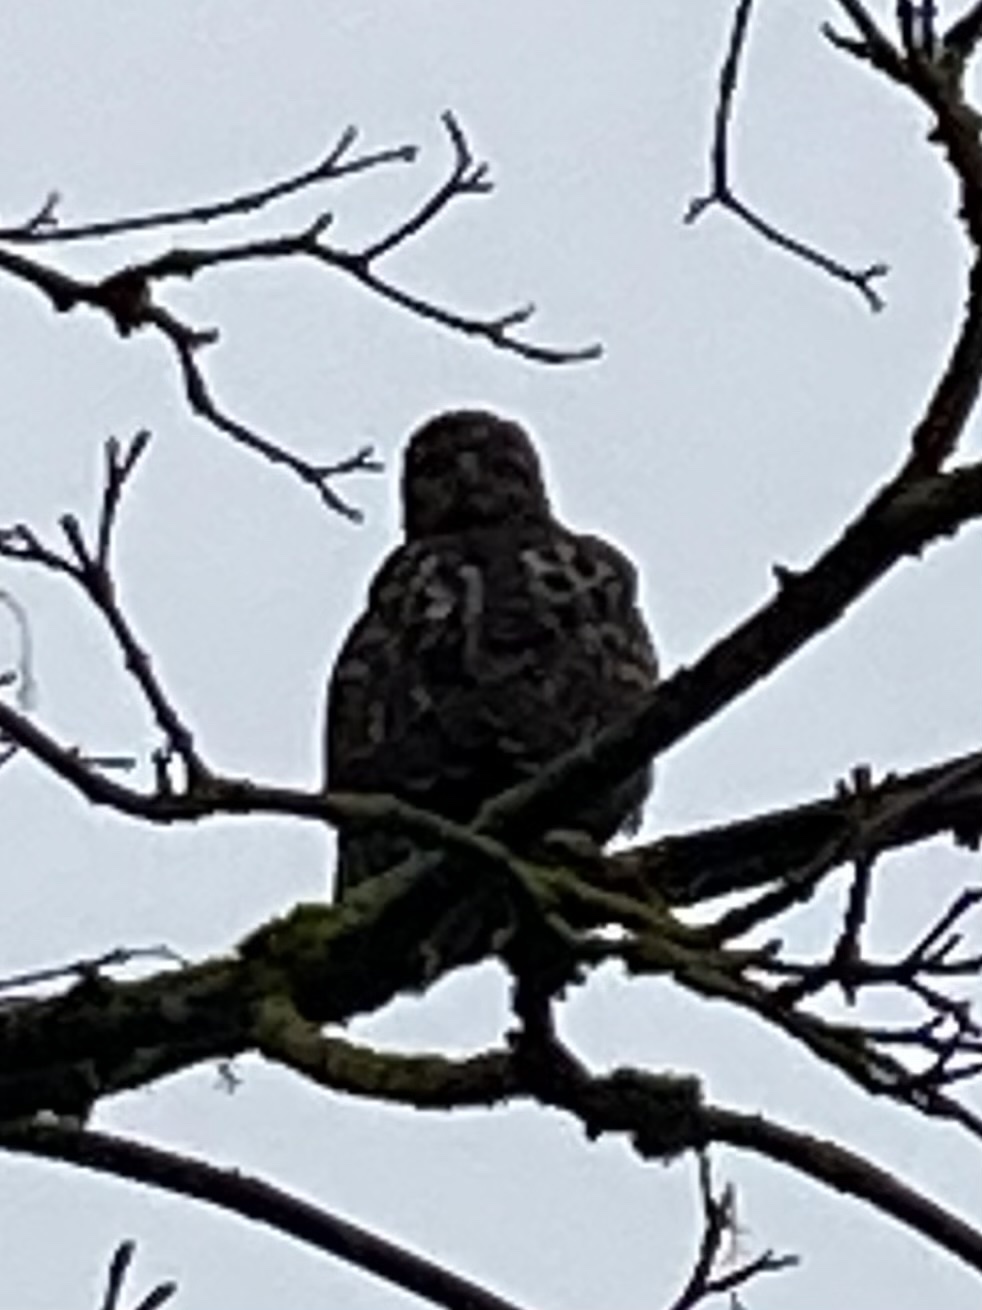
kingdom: Animalia
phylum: Chordata
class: Aves
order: Accipitriformes
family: Accipitridae
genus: Buteo
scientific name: Buteo jamaicensis
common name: Red-tailed hawk
